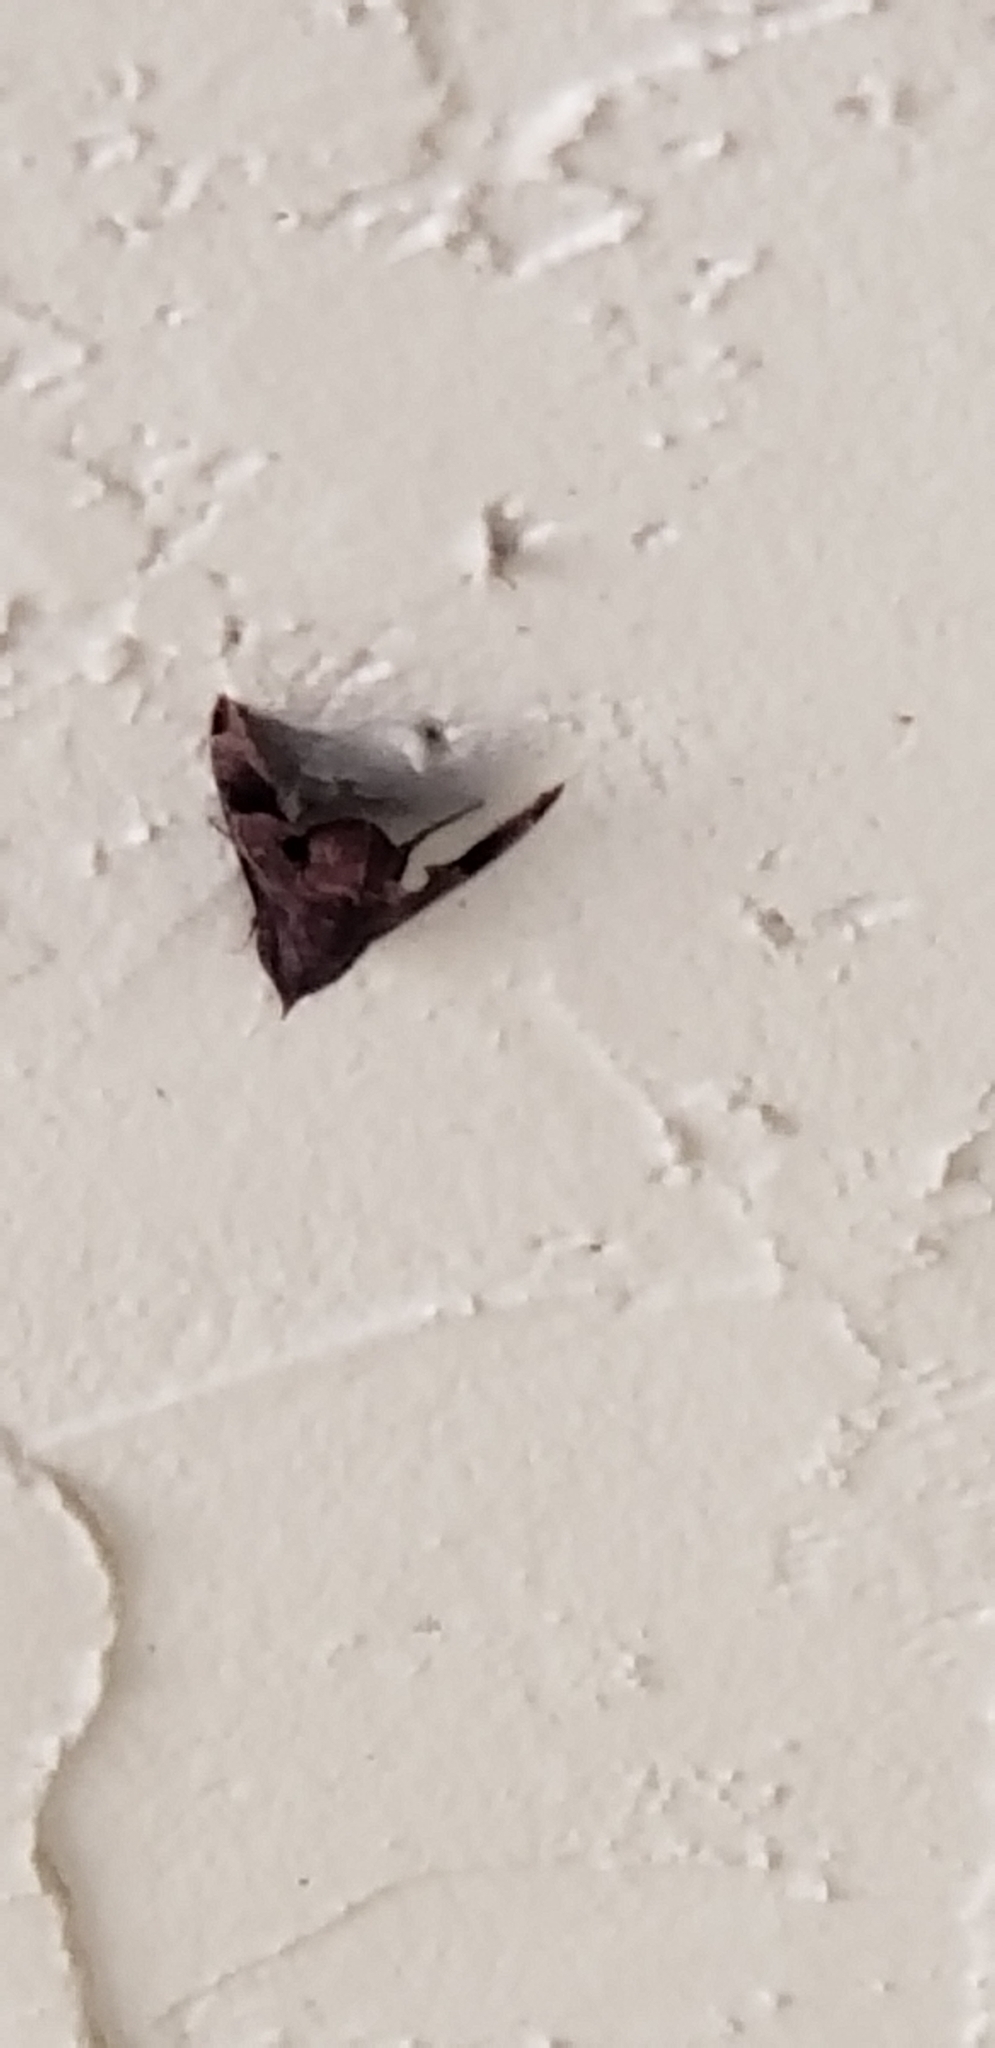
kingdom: Animalia
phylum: Arthropoda
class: Insecta
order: Lepidoptera
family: Sphingidae
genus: Enyo
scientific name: Enyo lugubris
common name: Mournful sphinx
